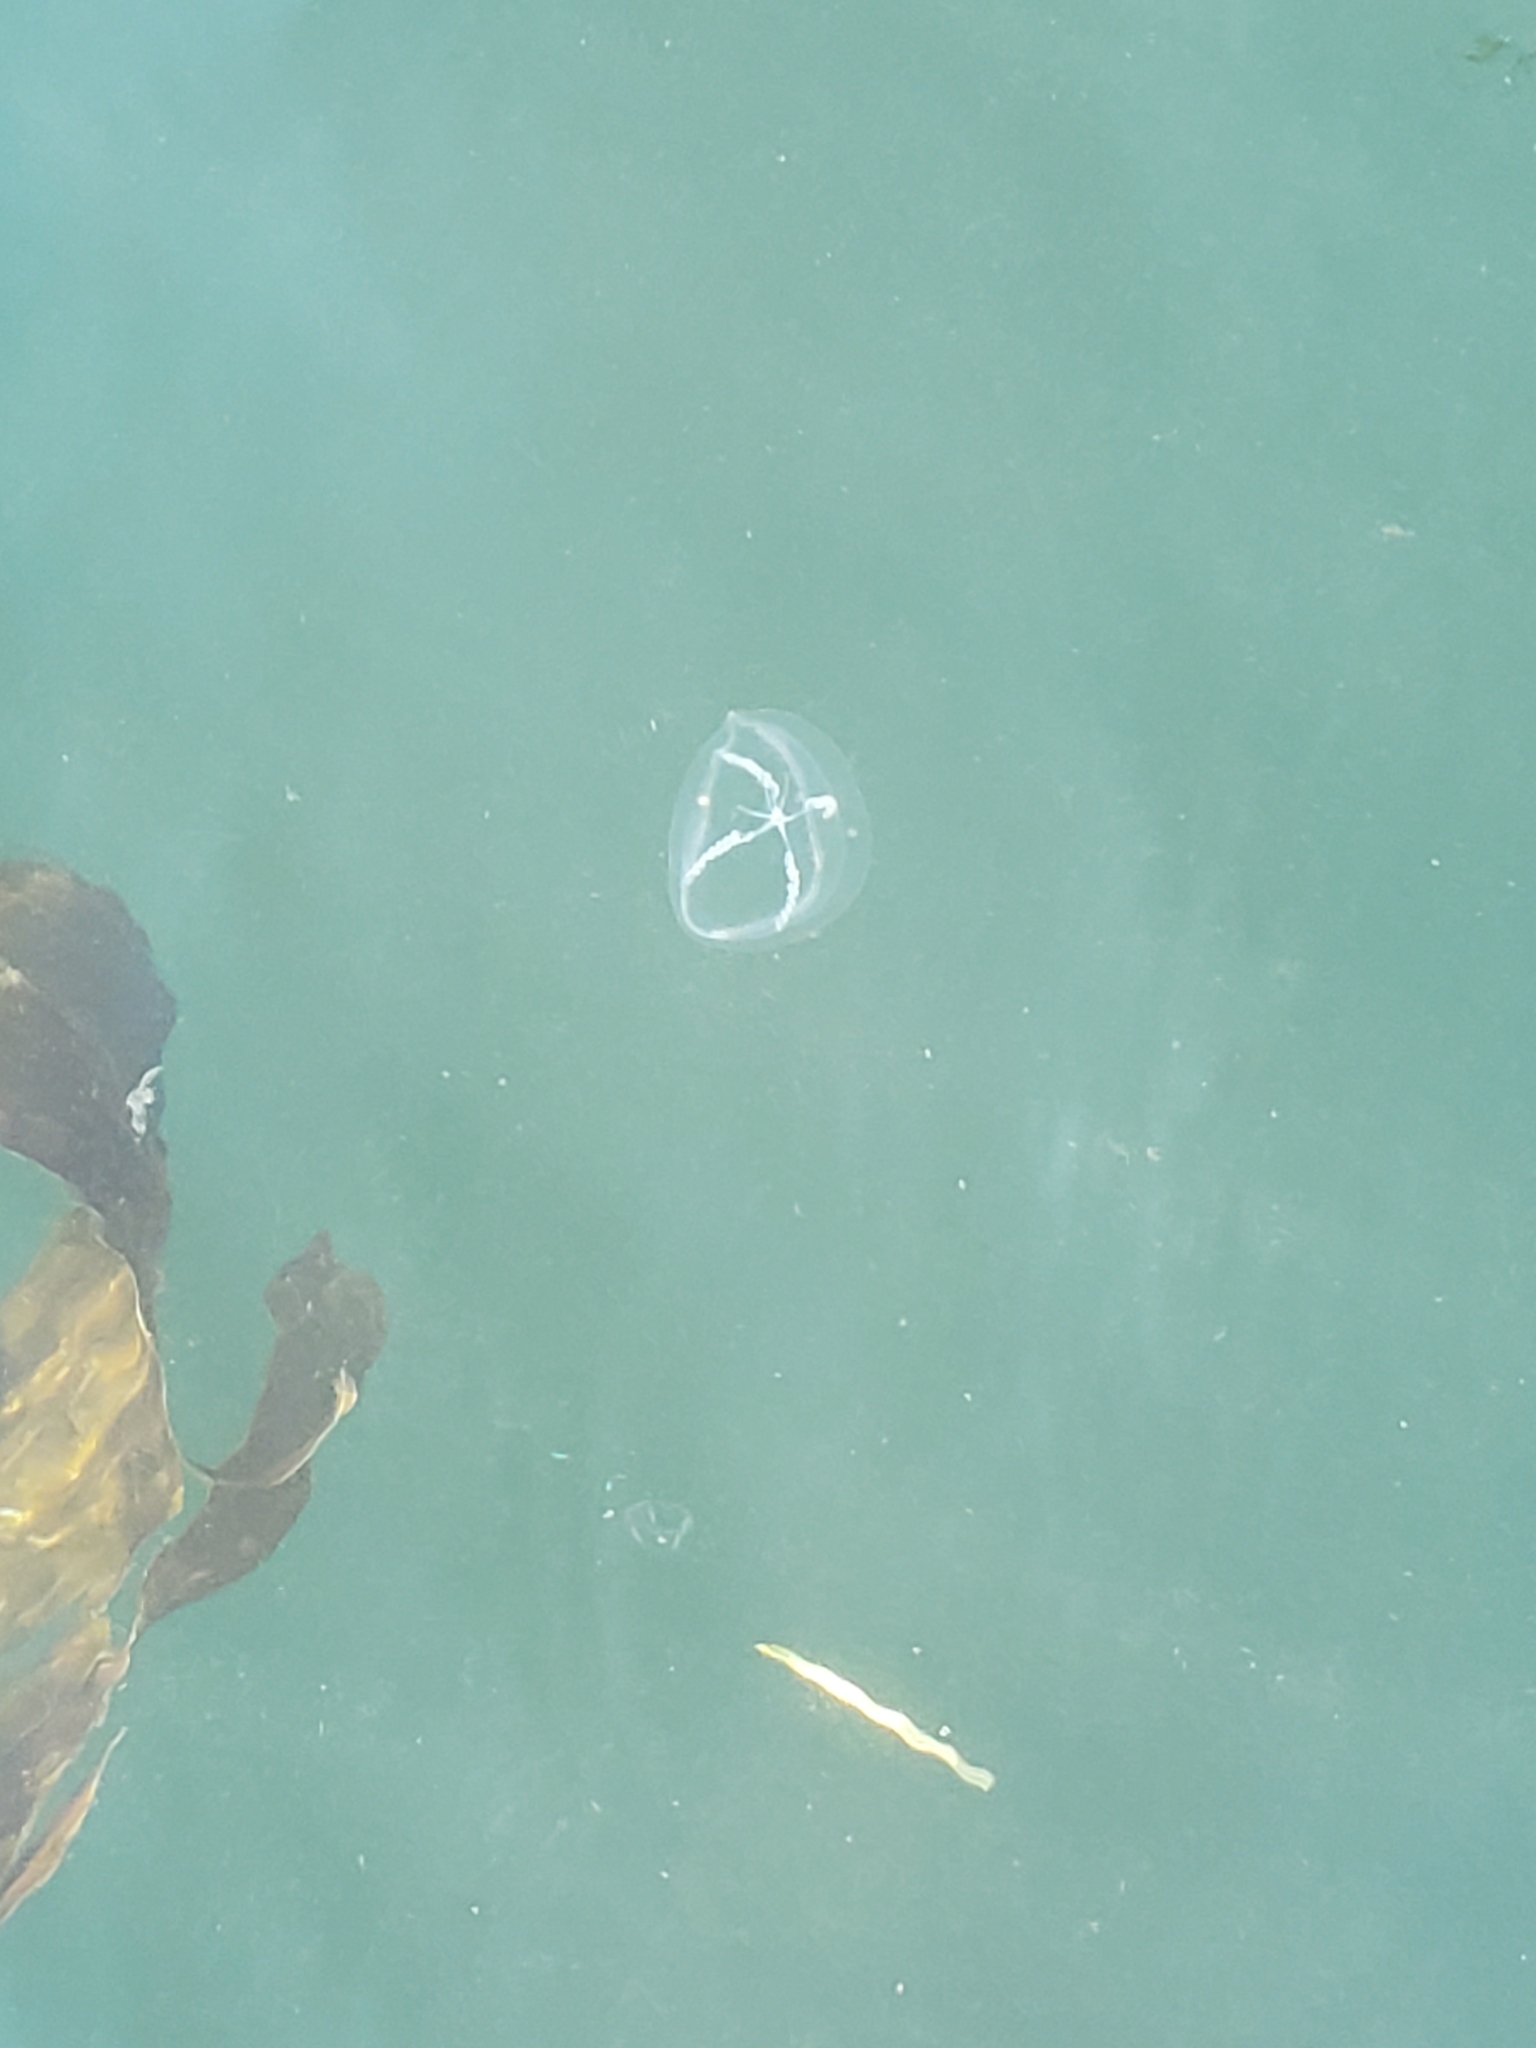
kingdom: Animalia
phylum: Cnidaria
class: Hydrozoa
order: Leptothecata
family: Mitrocomidae
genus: Mitrocoma
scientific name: Mitrocoma cellularia
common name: Cross jellyfish
